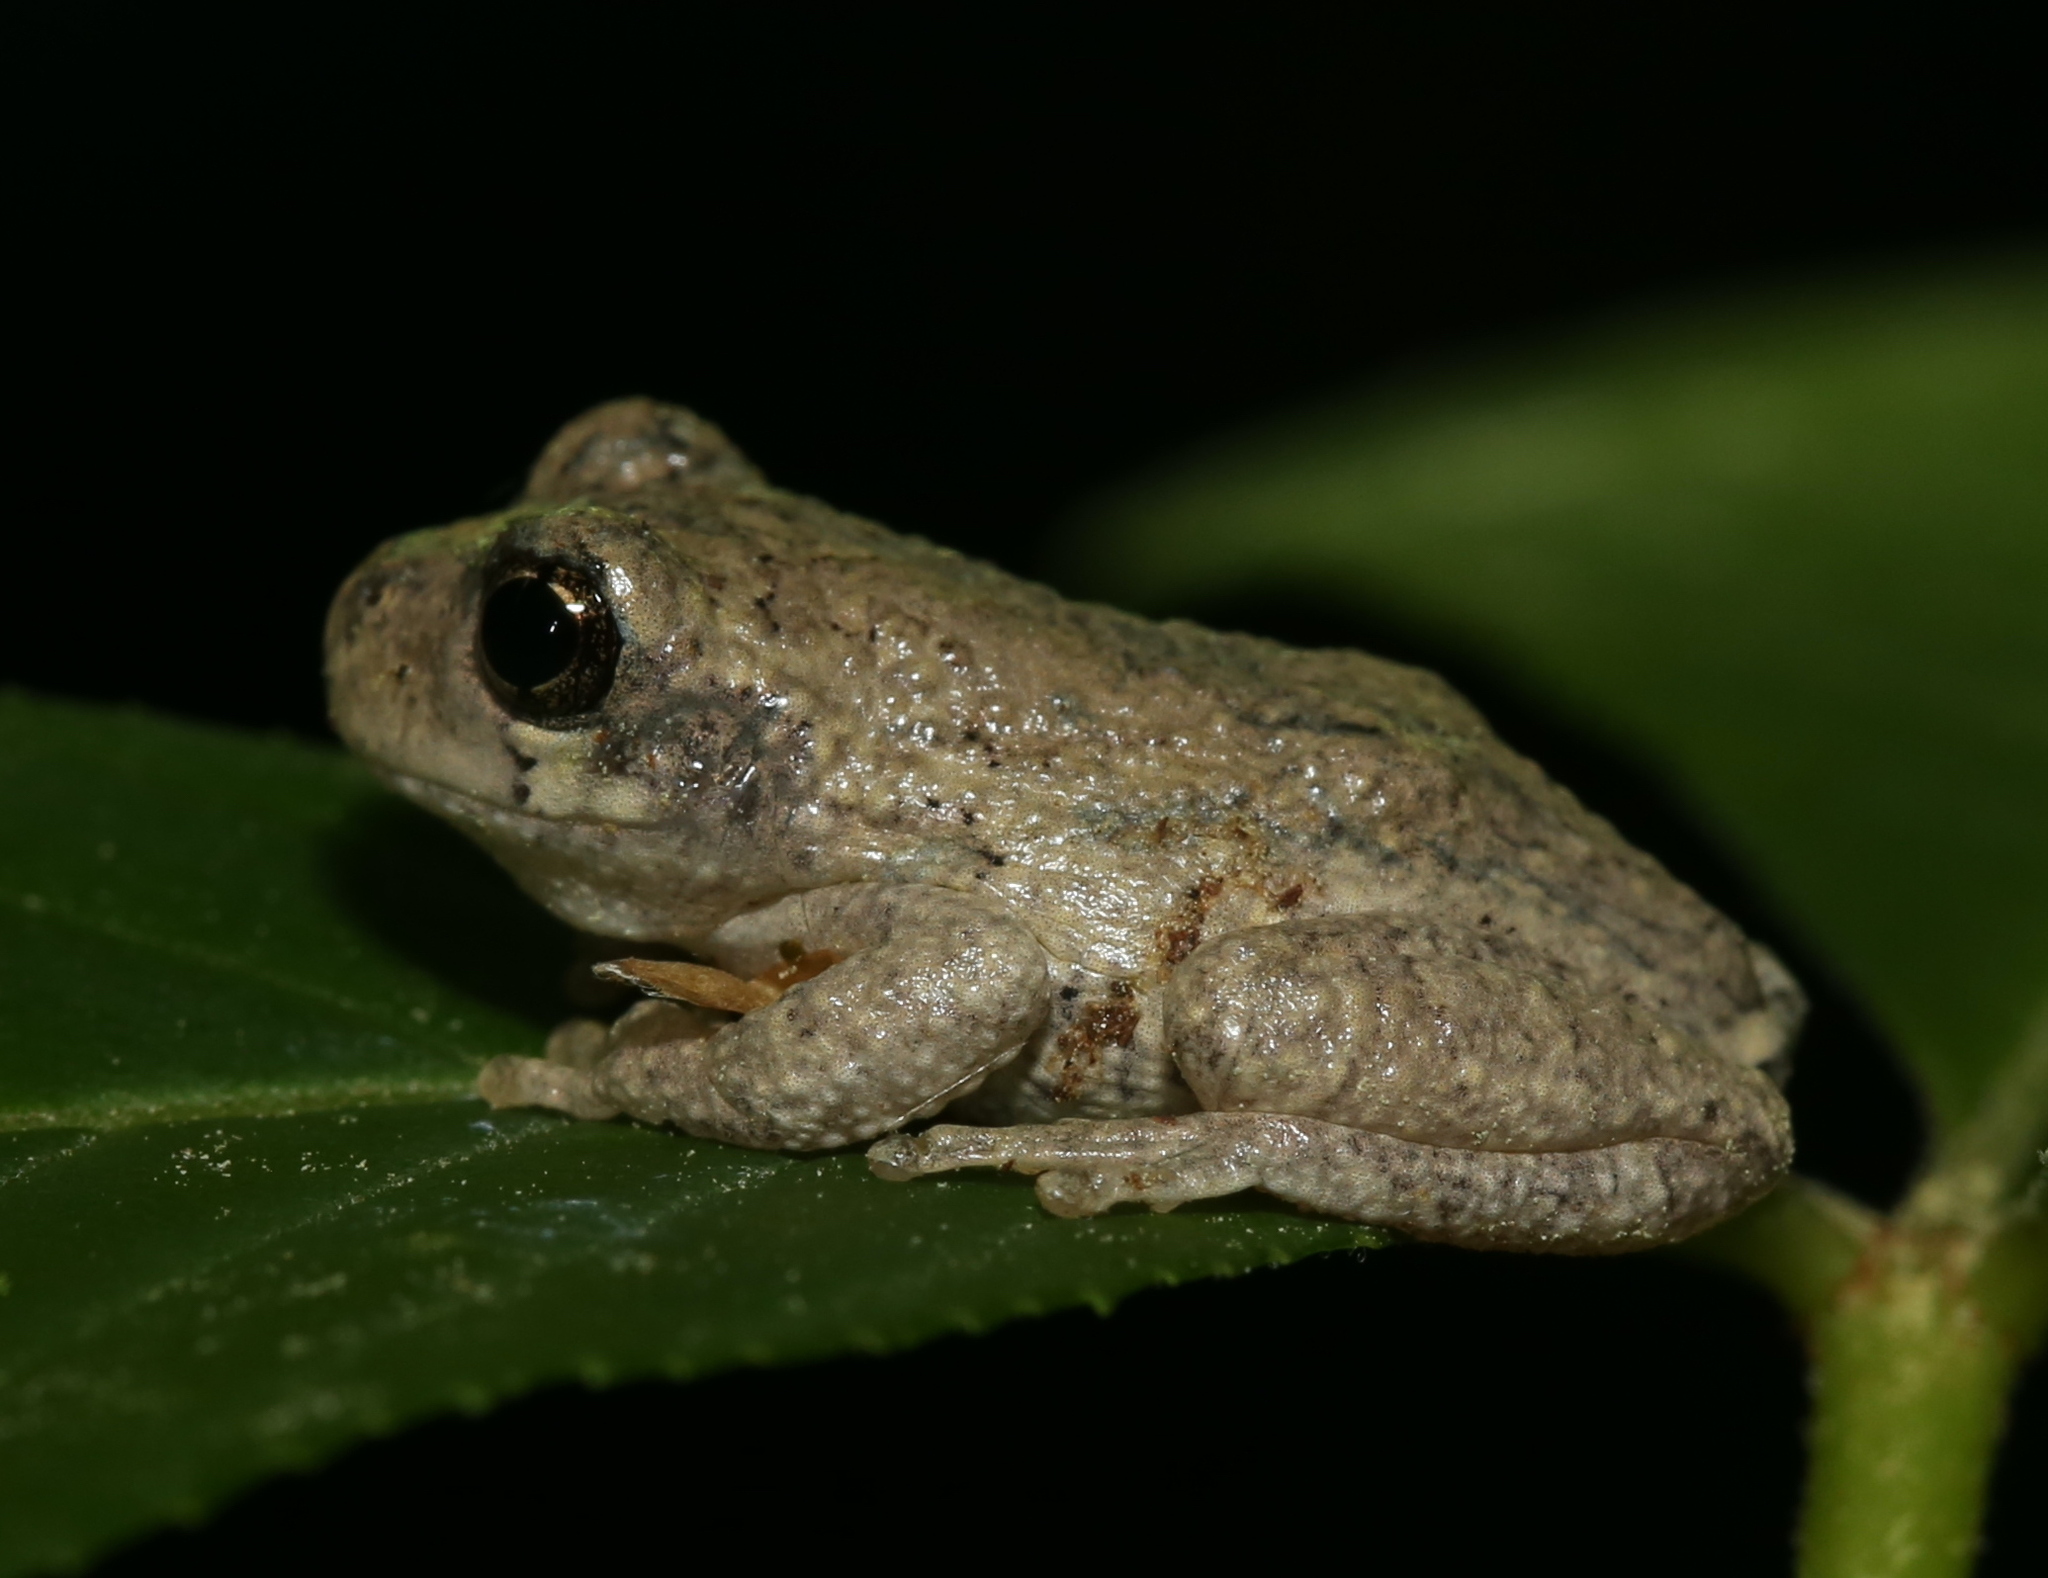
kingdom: Animalia
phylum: Chordata
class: Amphibia
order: Anura
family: Hylidae
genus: Dryophytes
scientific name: Dryophytes chrysoscelis
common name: Cope's gray treefrog
